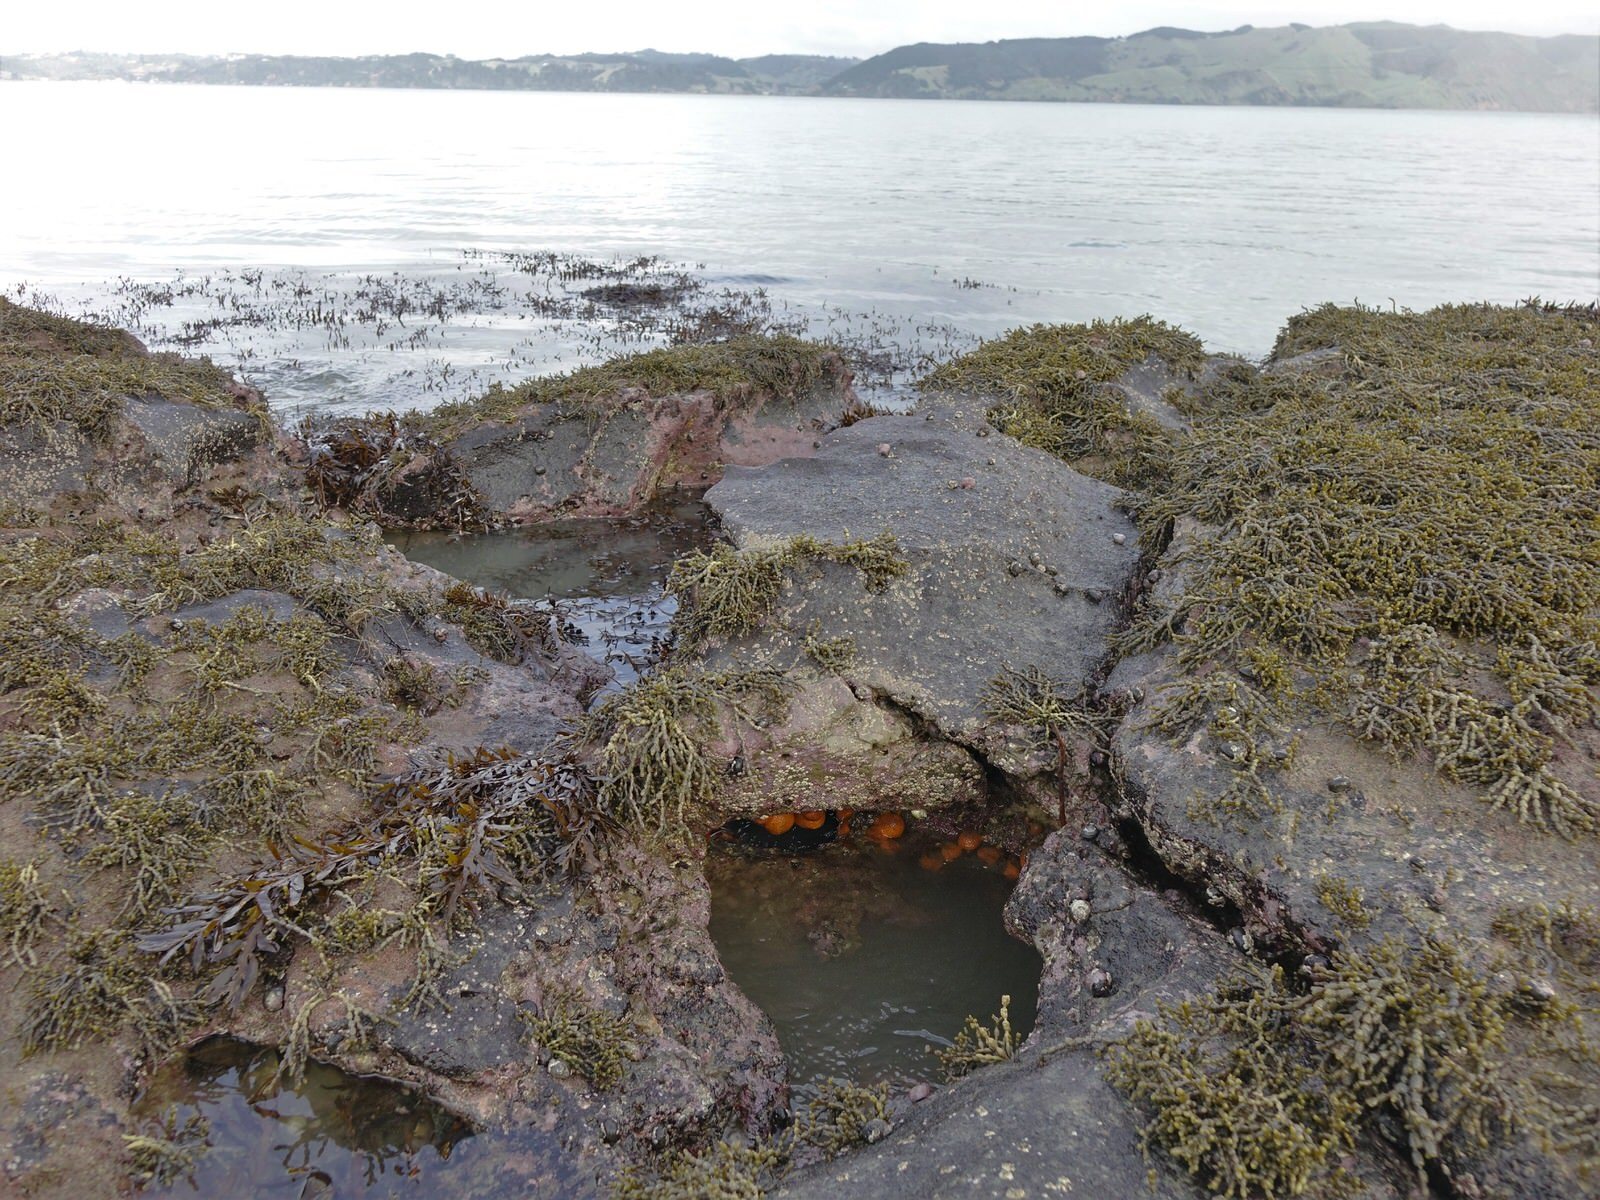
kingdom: Animalia
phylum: Porifera
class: Demospongiae
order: Tethyida
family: Tethyidae
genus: Tethya
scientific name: Tethya burtoni
